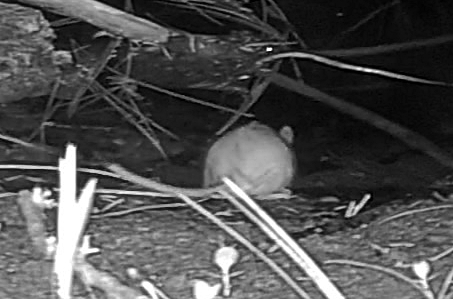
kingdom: Animalia
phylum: Chordata
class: Mammalia
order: Rodentia
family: Cricetidae
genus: Peromyscus
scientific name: Peromyscus maniculatus
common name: Deer mouse
